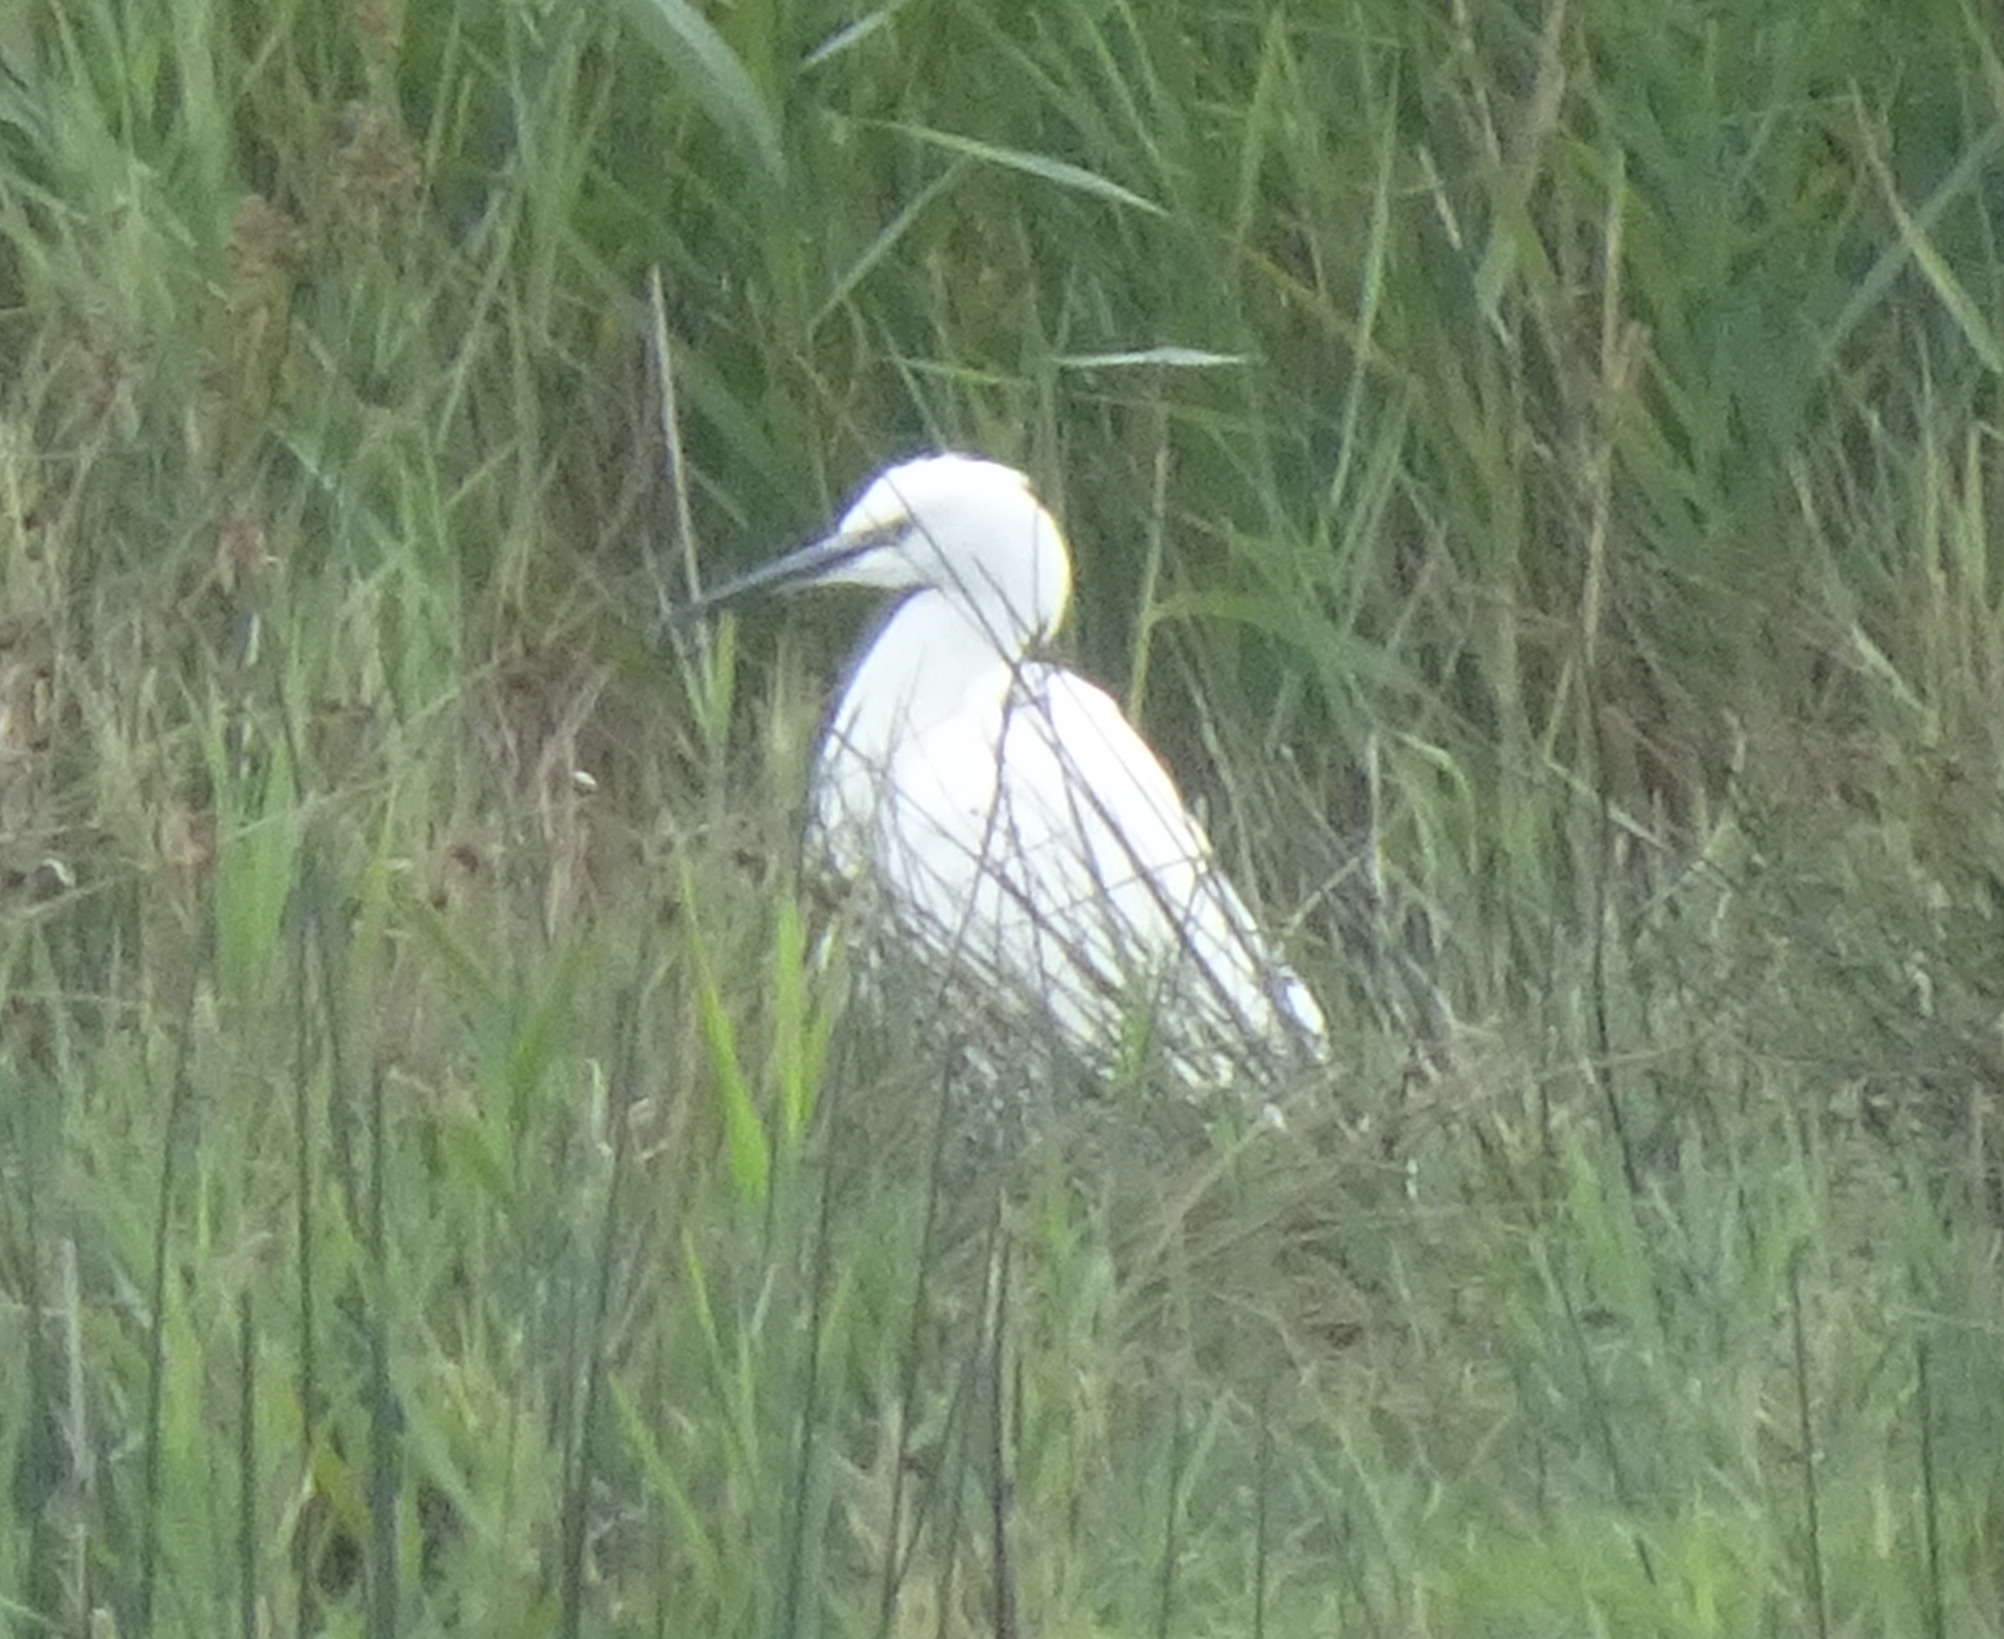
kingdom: Animalia
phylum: Chordata
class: Aves
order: Pelecaniformes
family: Ardeidae
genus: Egretta
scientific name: Egretta garzetta
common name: Little egret
